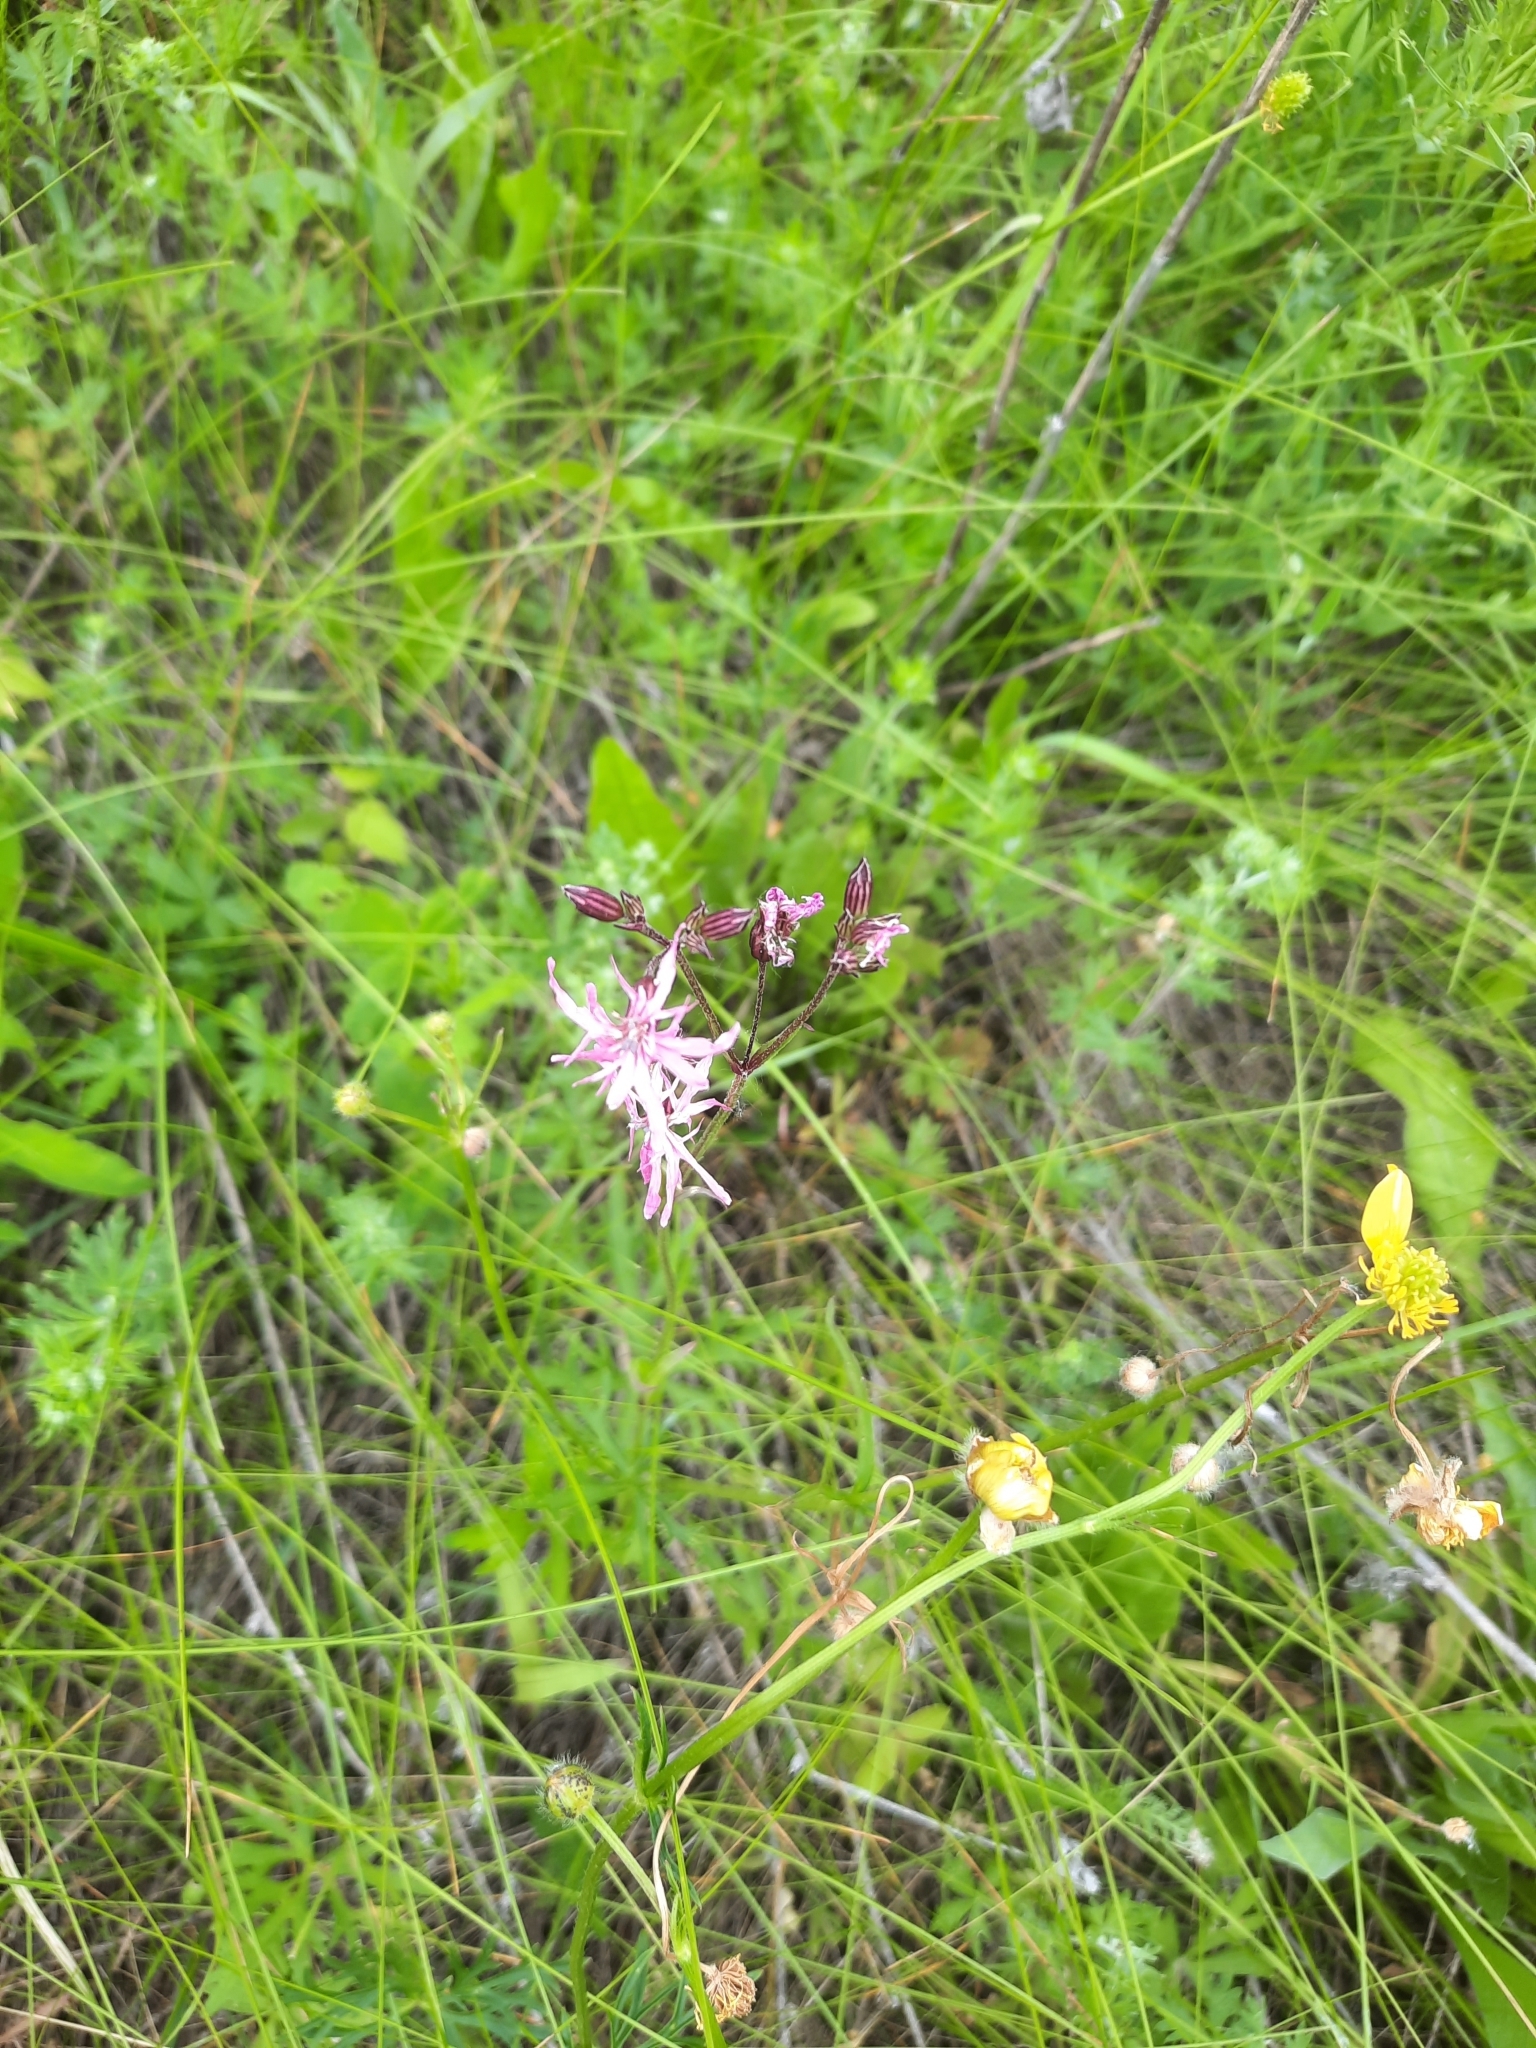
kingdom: Plantae
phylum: Tracheophyta
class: Magnoliopsida
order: Caryophyllales
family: Caryophyllaceae
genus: Silene
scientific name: Silene flos-cuculi
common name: Ragged-robin
